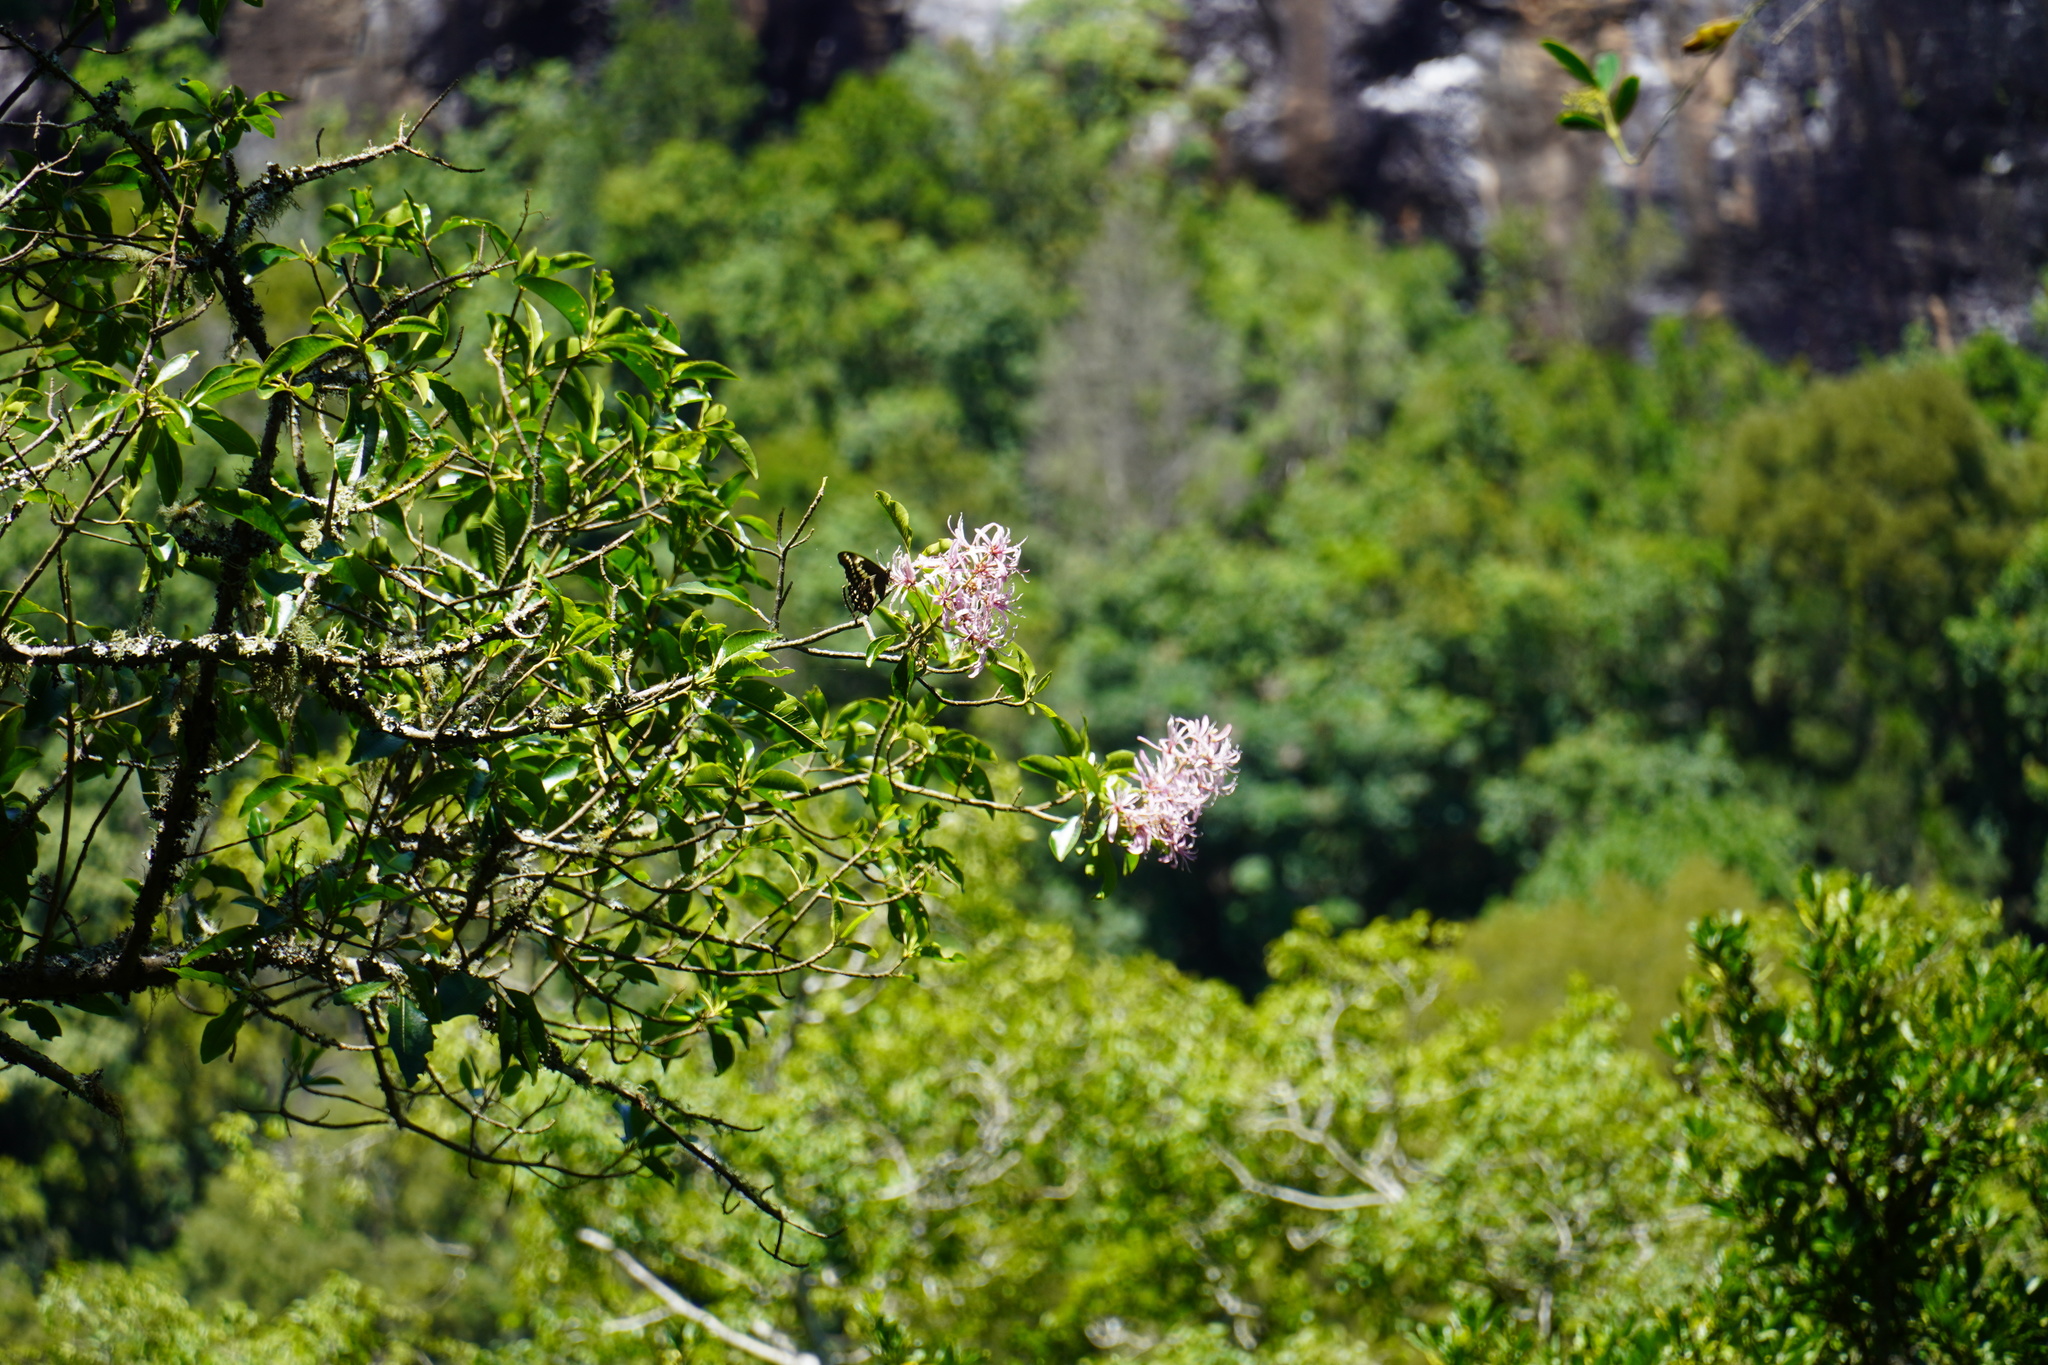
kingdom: Animalia
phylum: Arthropoda
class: Insecta
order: Lepidoptera
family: Papilionidae
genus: Papilio
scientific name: Papilio euphranor
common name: Bush kite swallowtail
